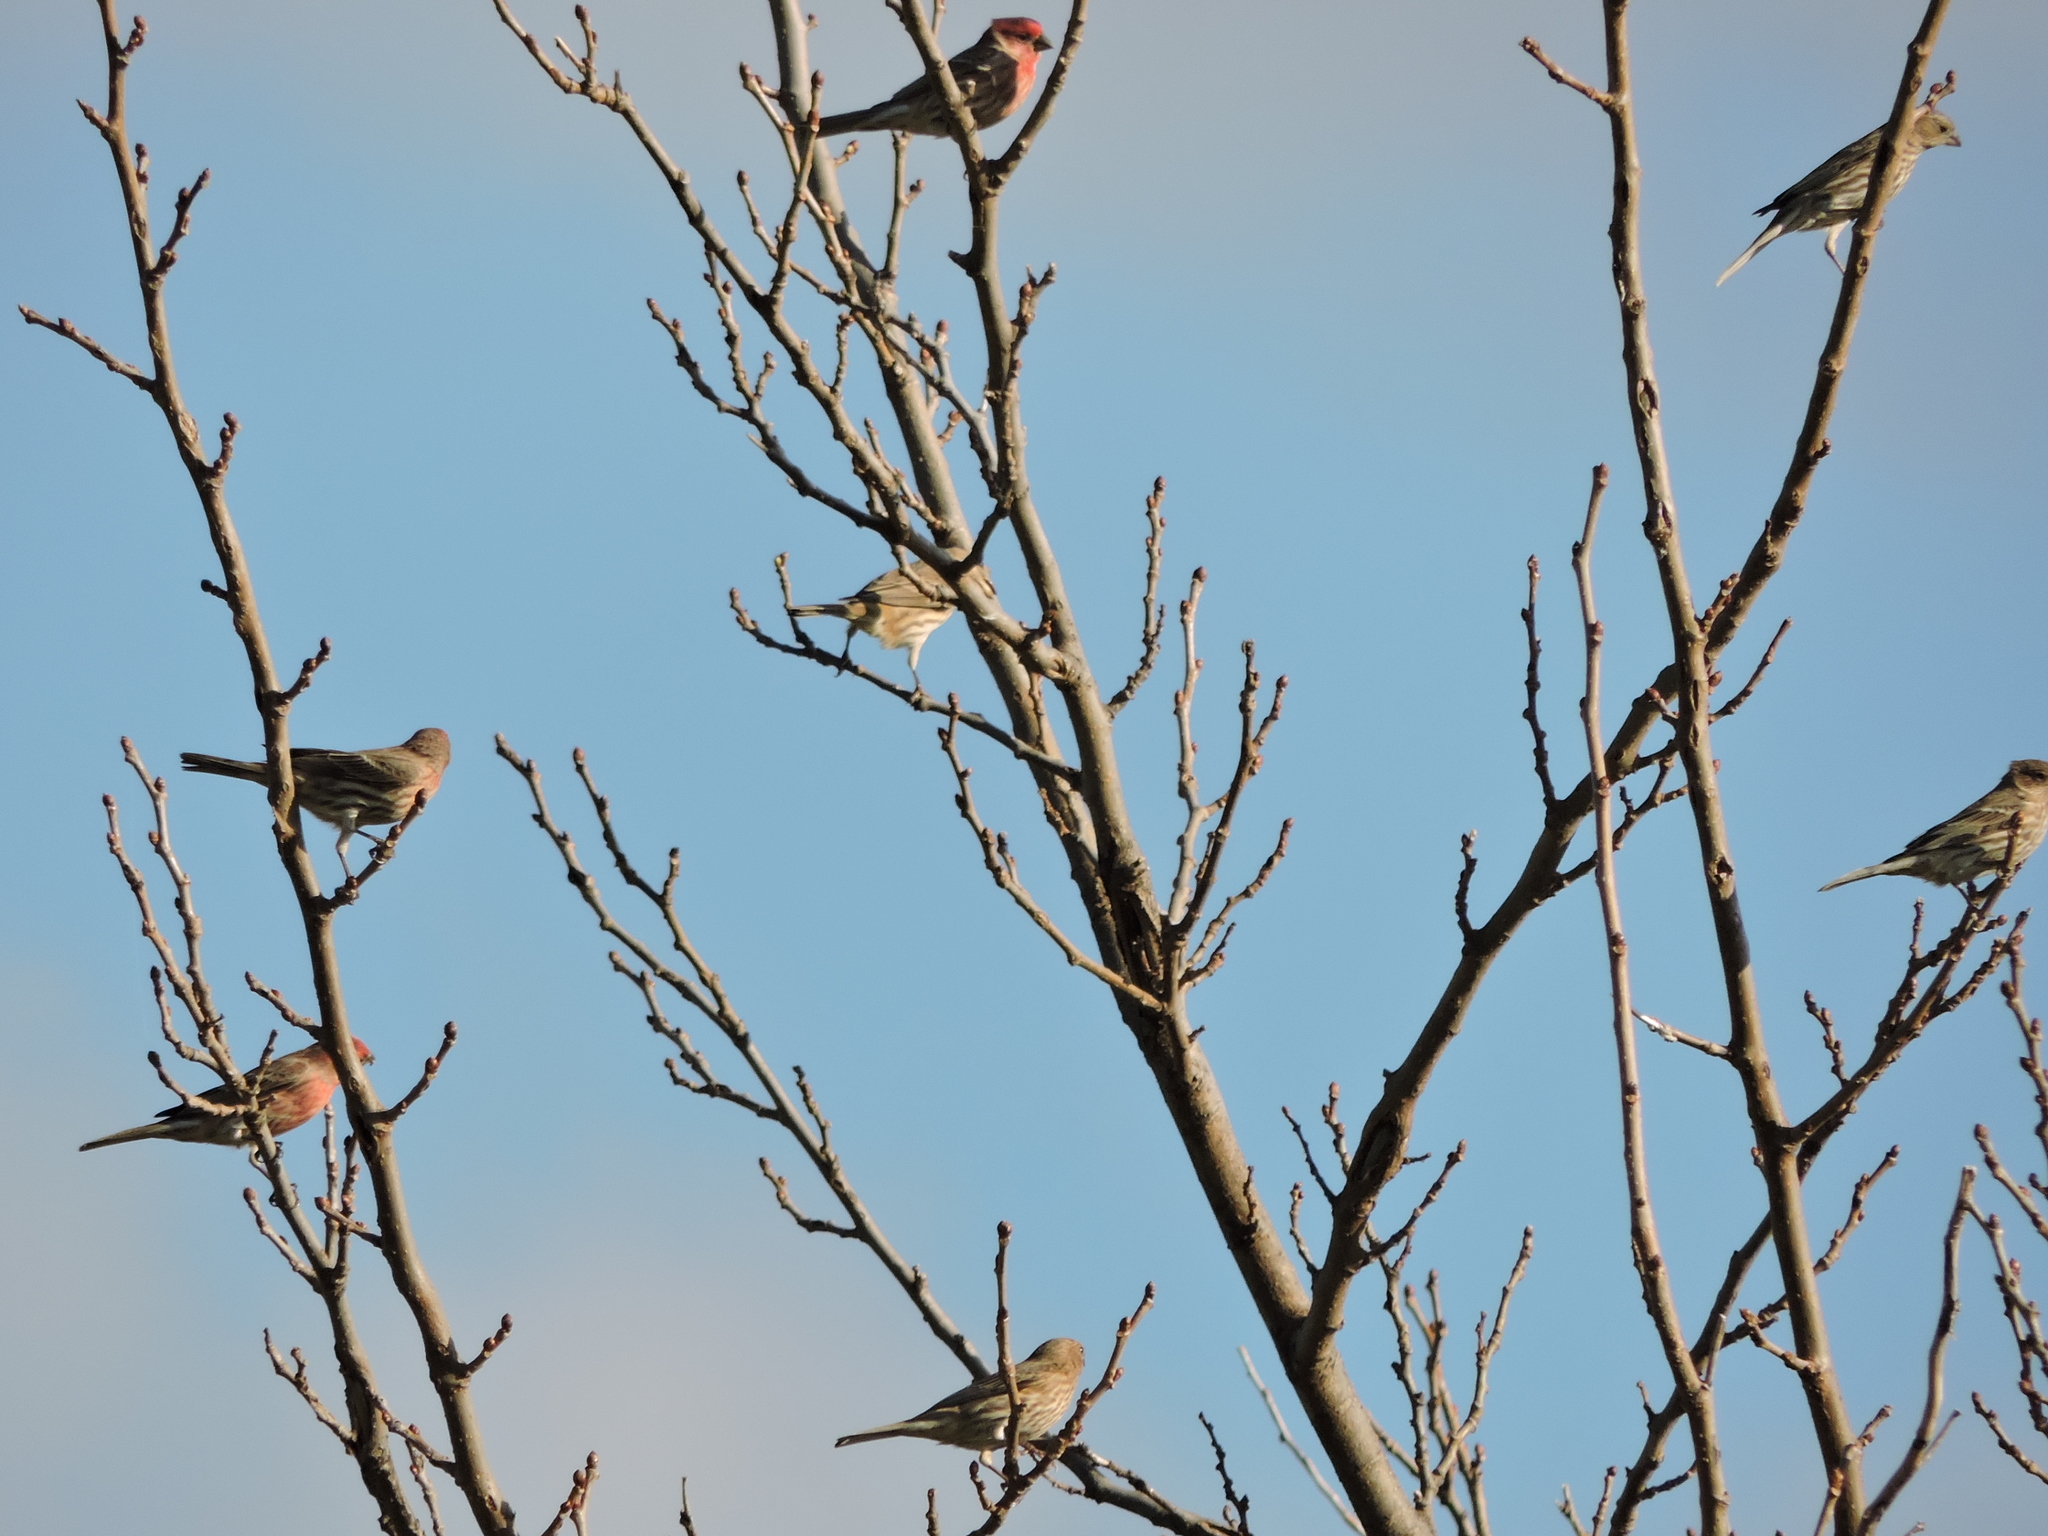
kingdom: Animalia
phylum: Chordata
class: Aves
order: Passeriformes
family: Fringillidae
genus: Haemorhous
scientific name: Haemorhous mexicanus
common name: House finch
